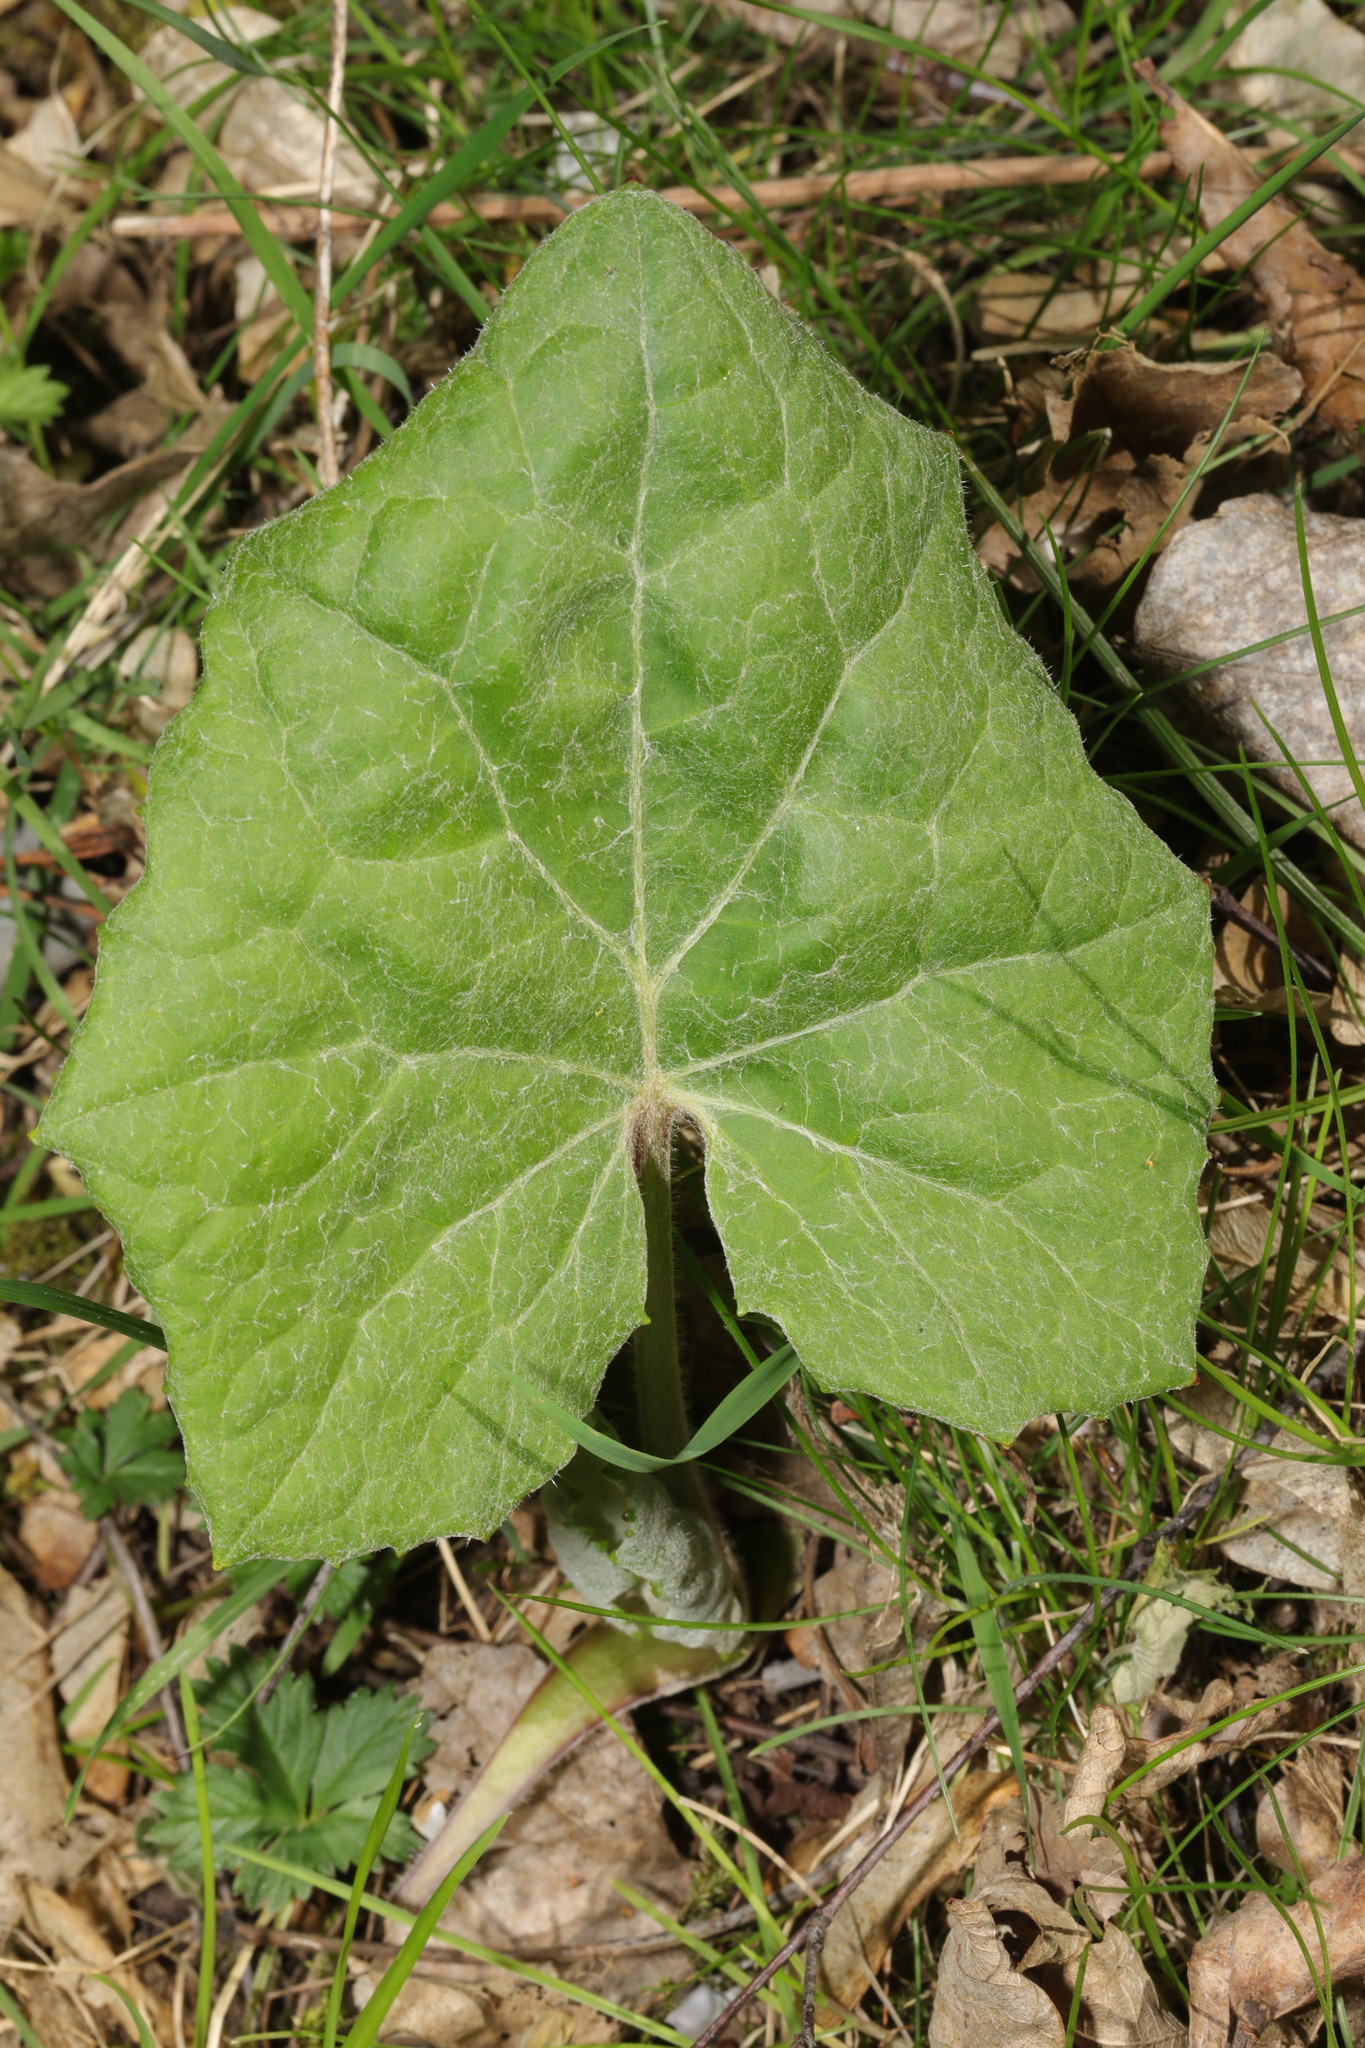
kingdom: Plantae
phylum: Tracheophyta
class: Magnoliopsida
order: Asterales
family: Asteraceae
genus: Tussilago
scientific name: Tussilago farfara
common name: Coltsfoot
